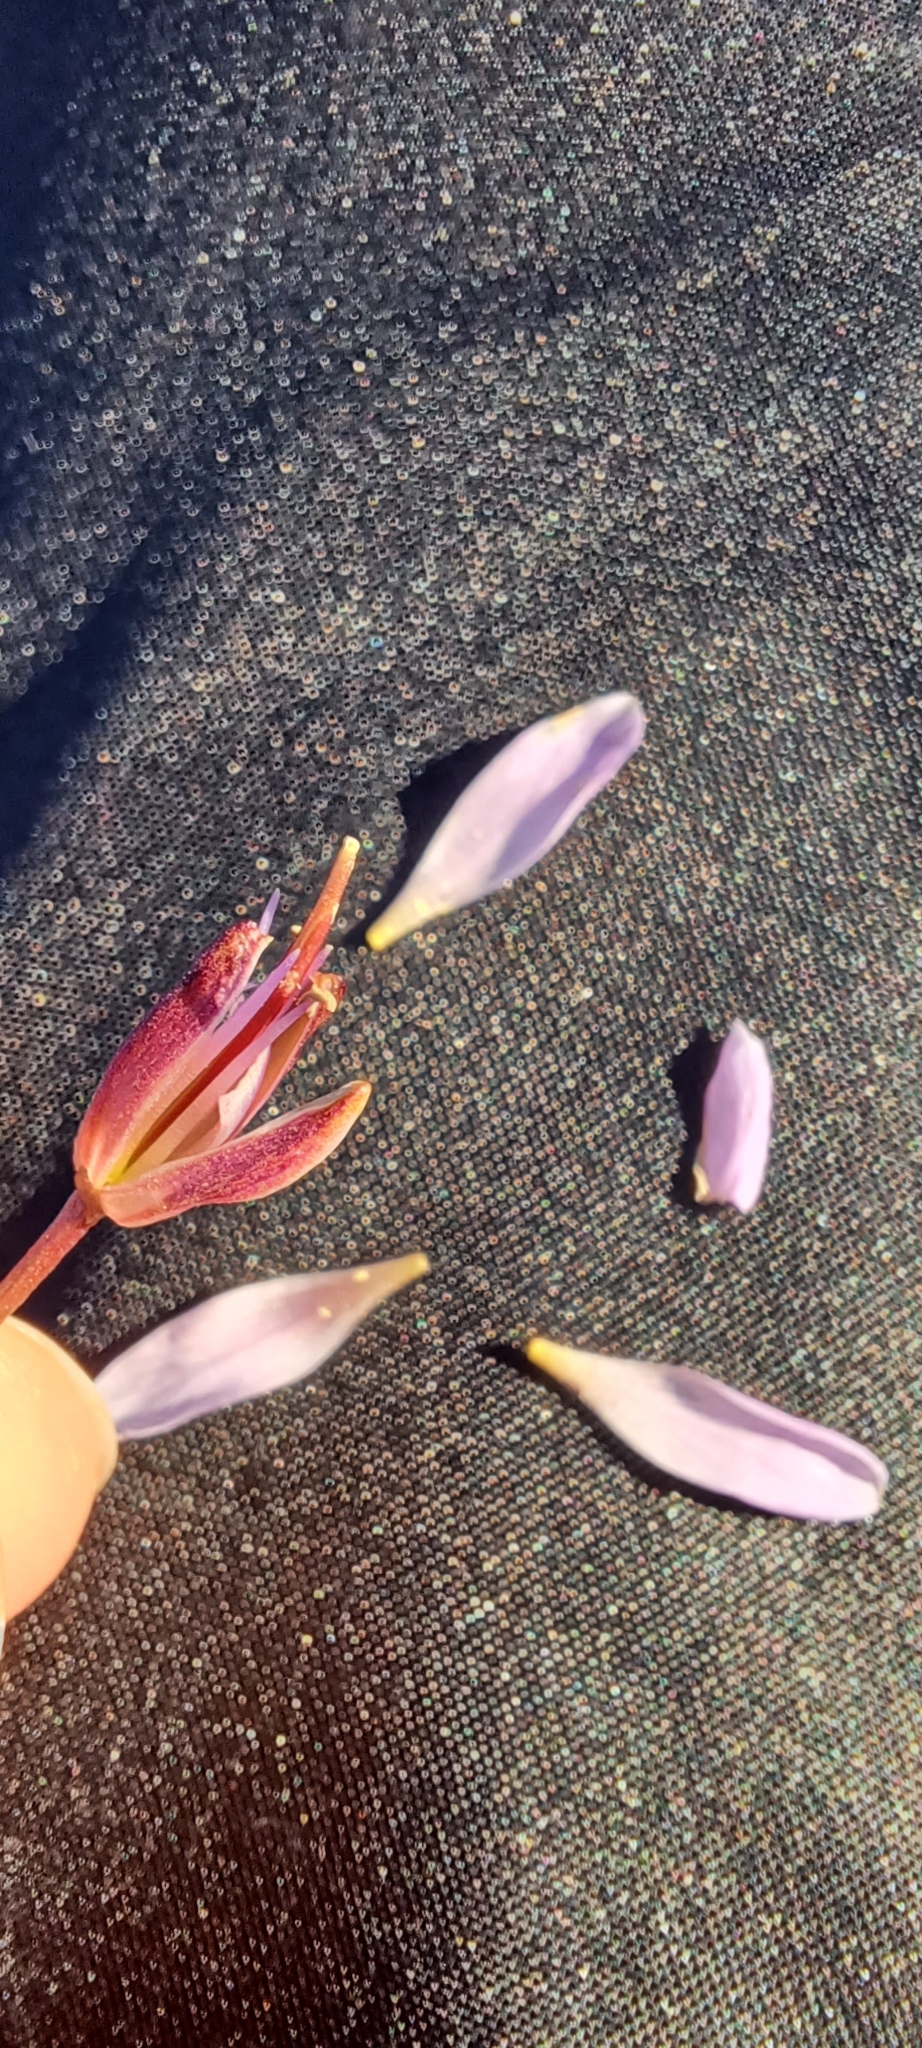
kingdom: Plantae
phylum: Tracheophyta
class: Magnoliopsida
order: Brassicales
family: Brassicaceae
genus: Heliophila
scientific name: Heliophila scoparia
